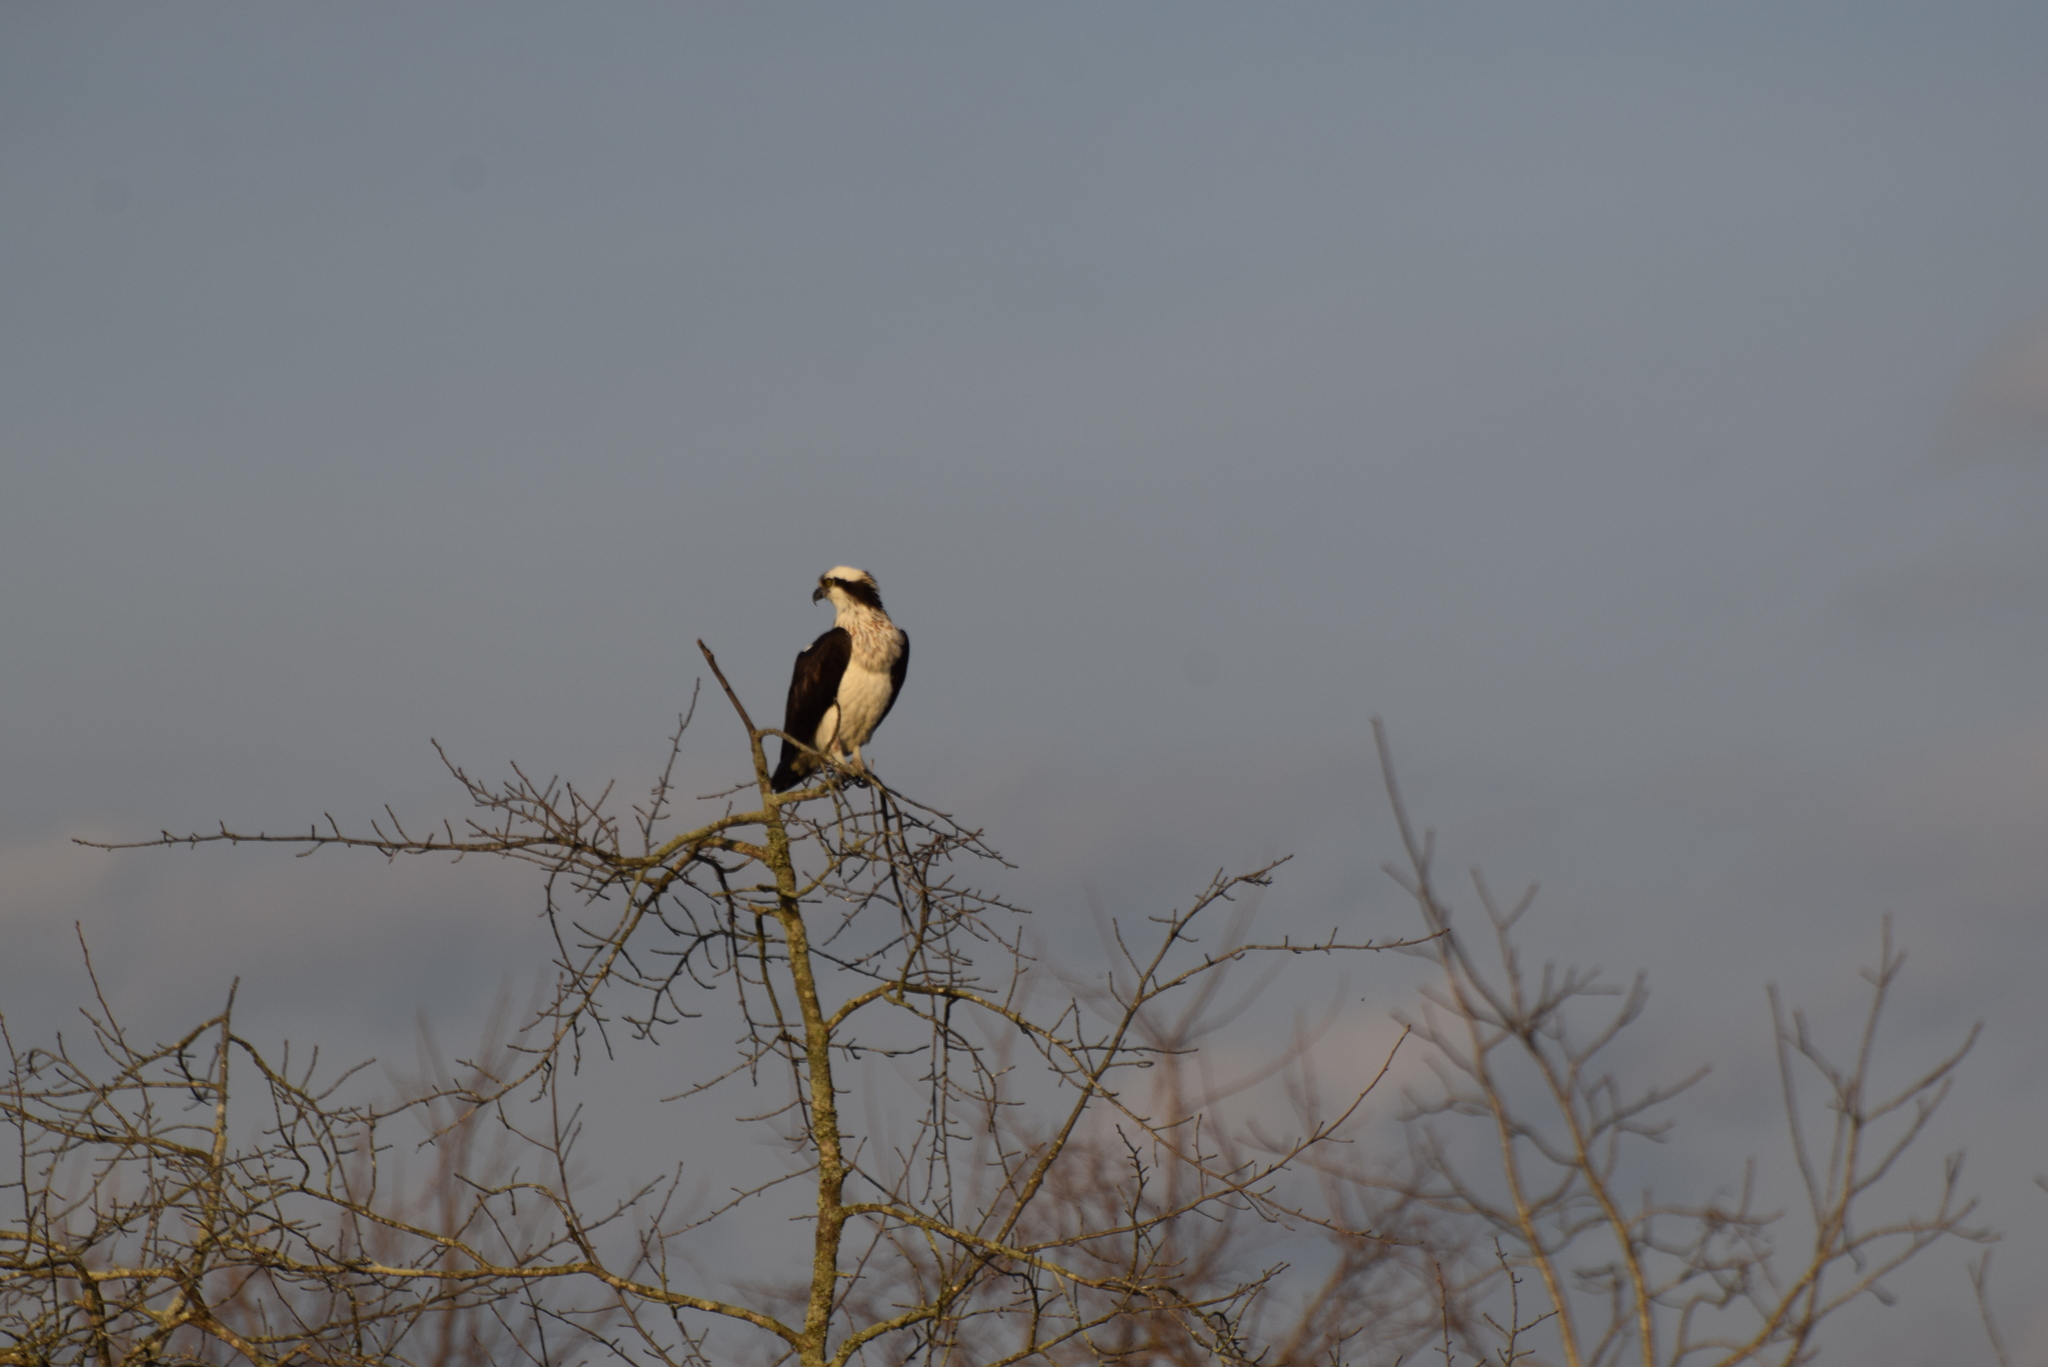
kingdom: Animalia
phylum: Chordata
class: Aves
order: Accipitriformes
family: Pandionidae
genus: Pandion
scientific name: Pandion haliaetus
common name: Osprey
